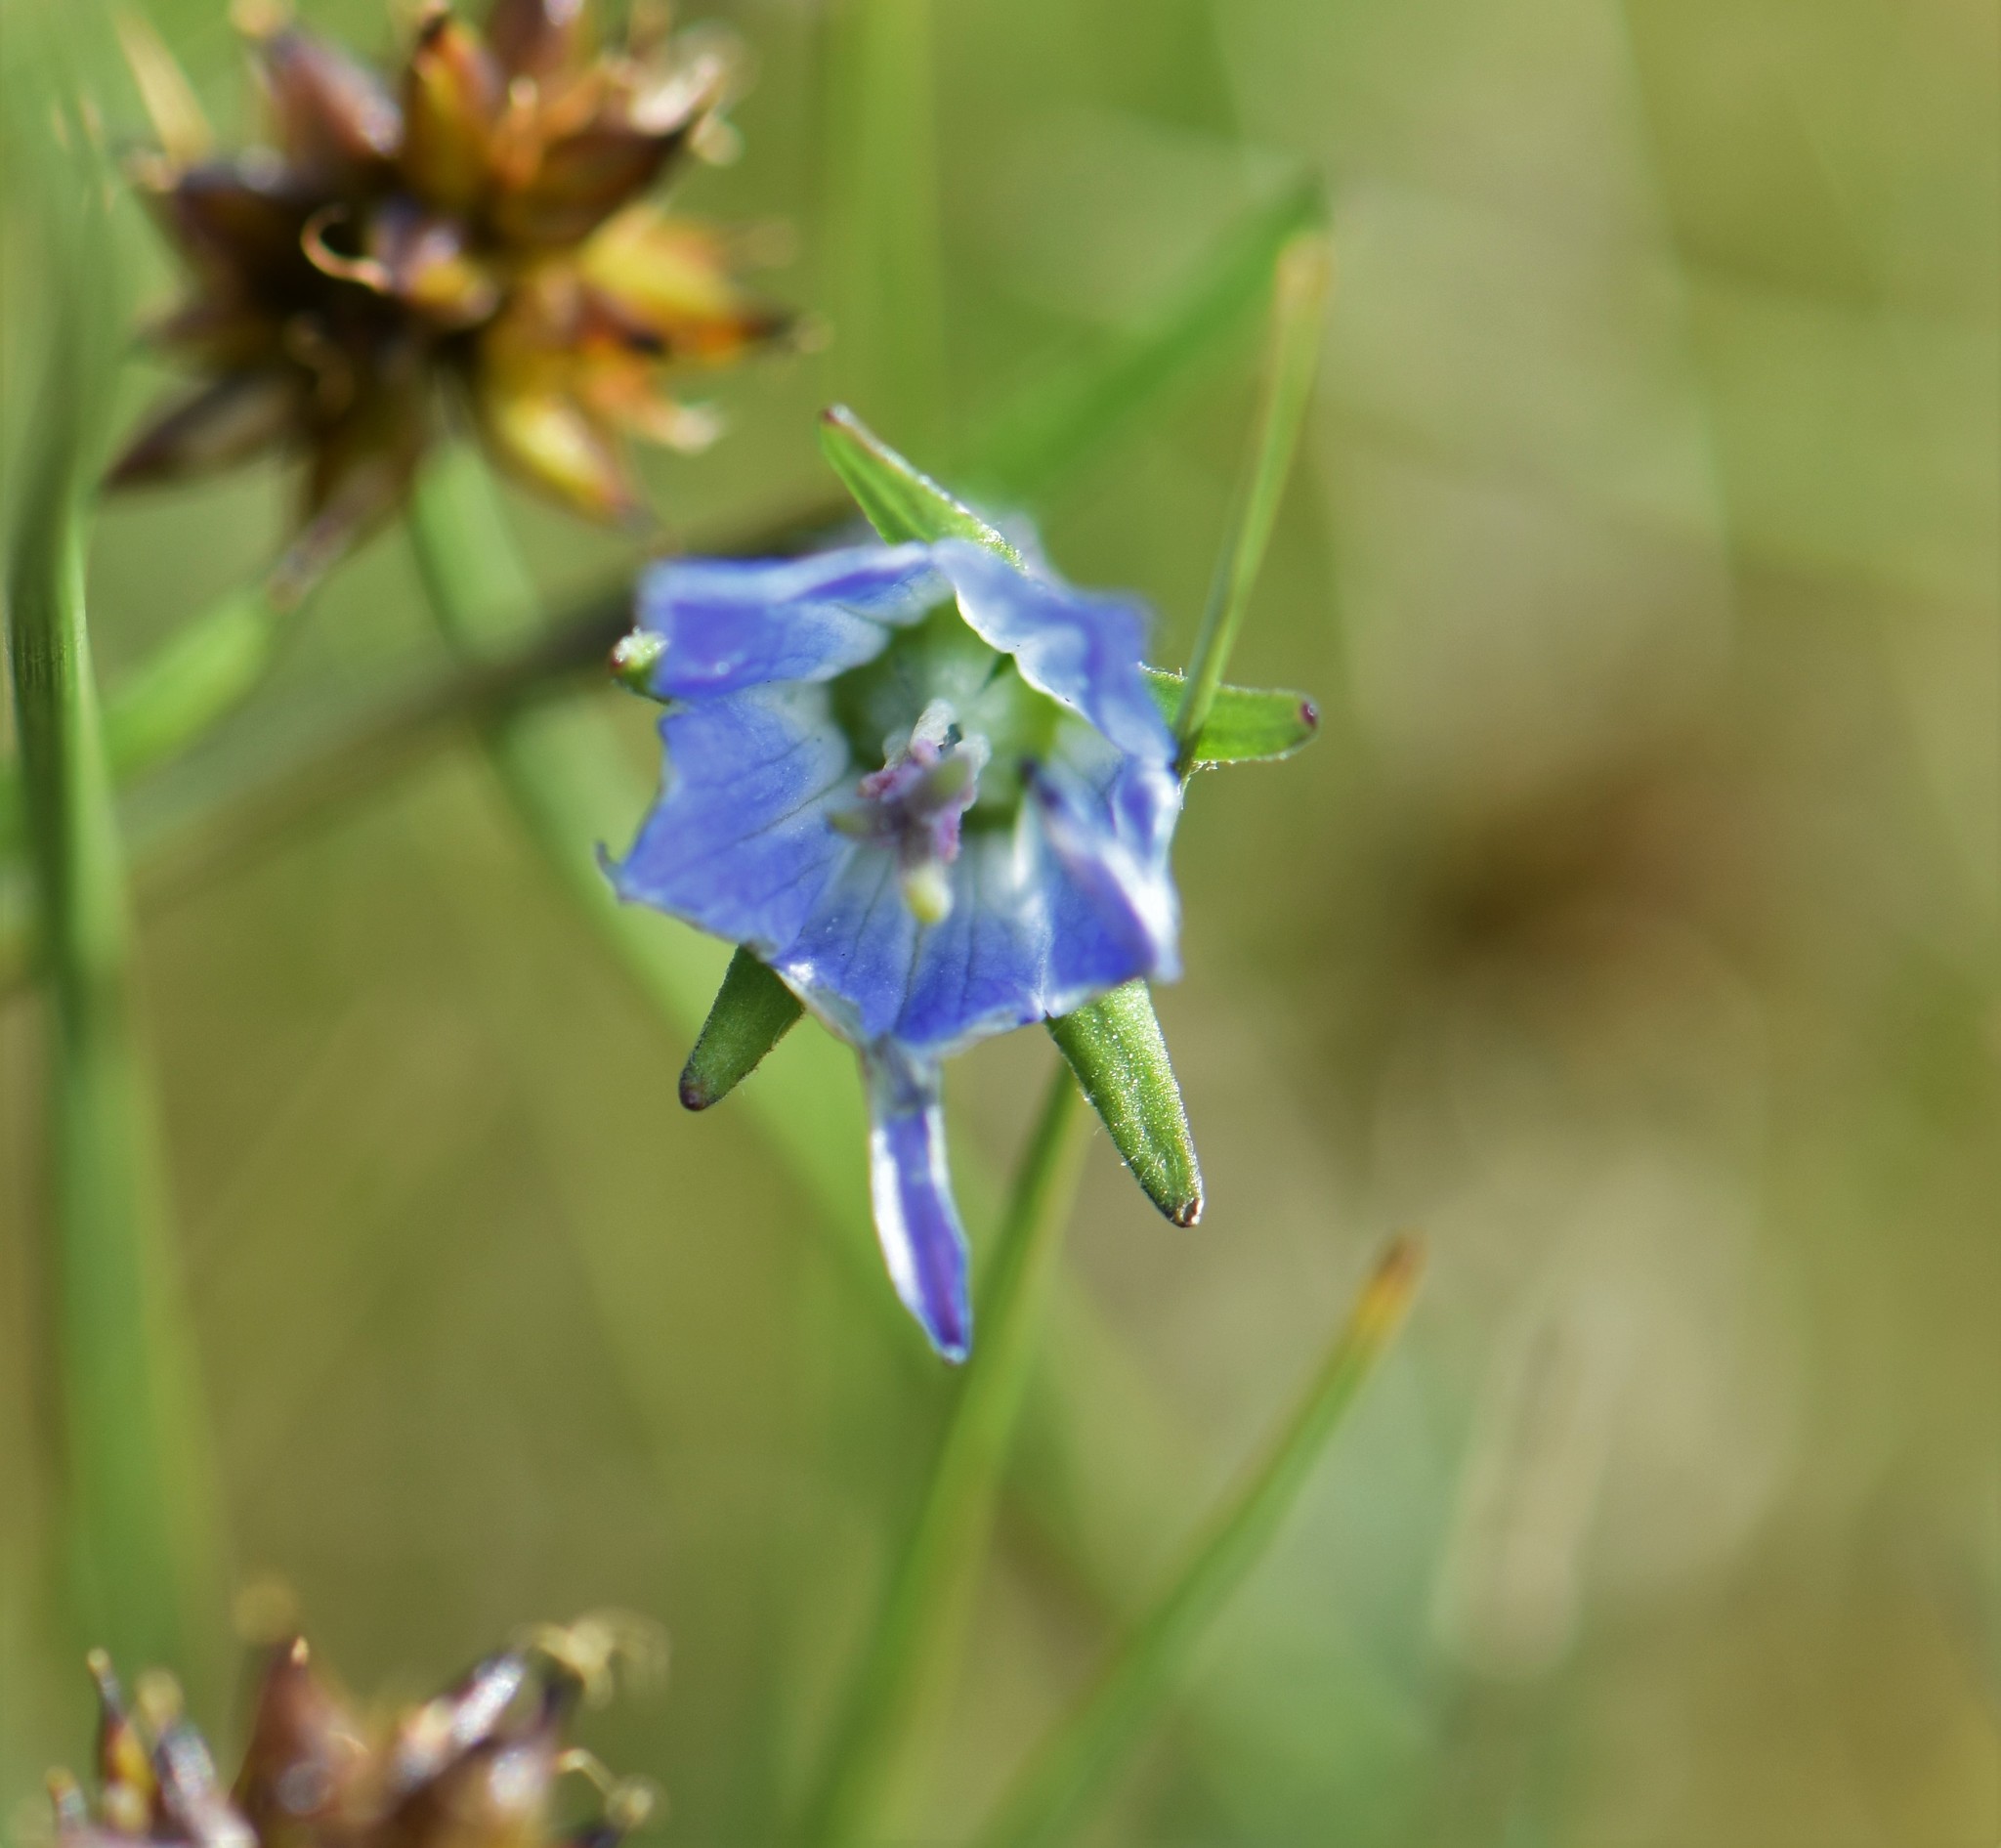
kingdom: Plantae
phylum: Tracheophyta
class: Magnoliopsida
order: Asterales
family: Campanulaceae
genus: Campanula
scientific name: Campanula uniflora
